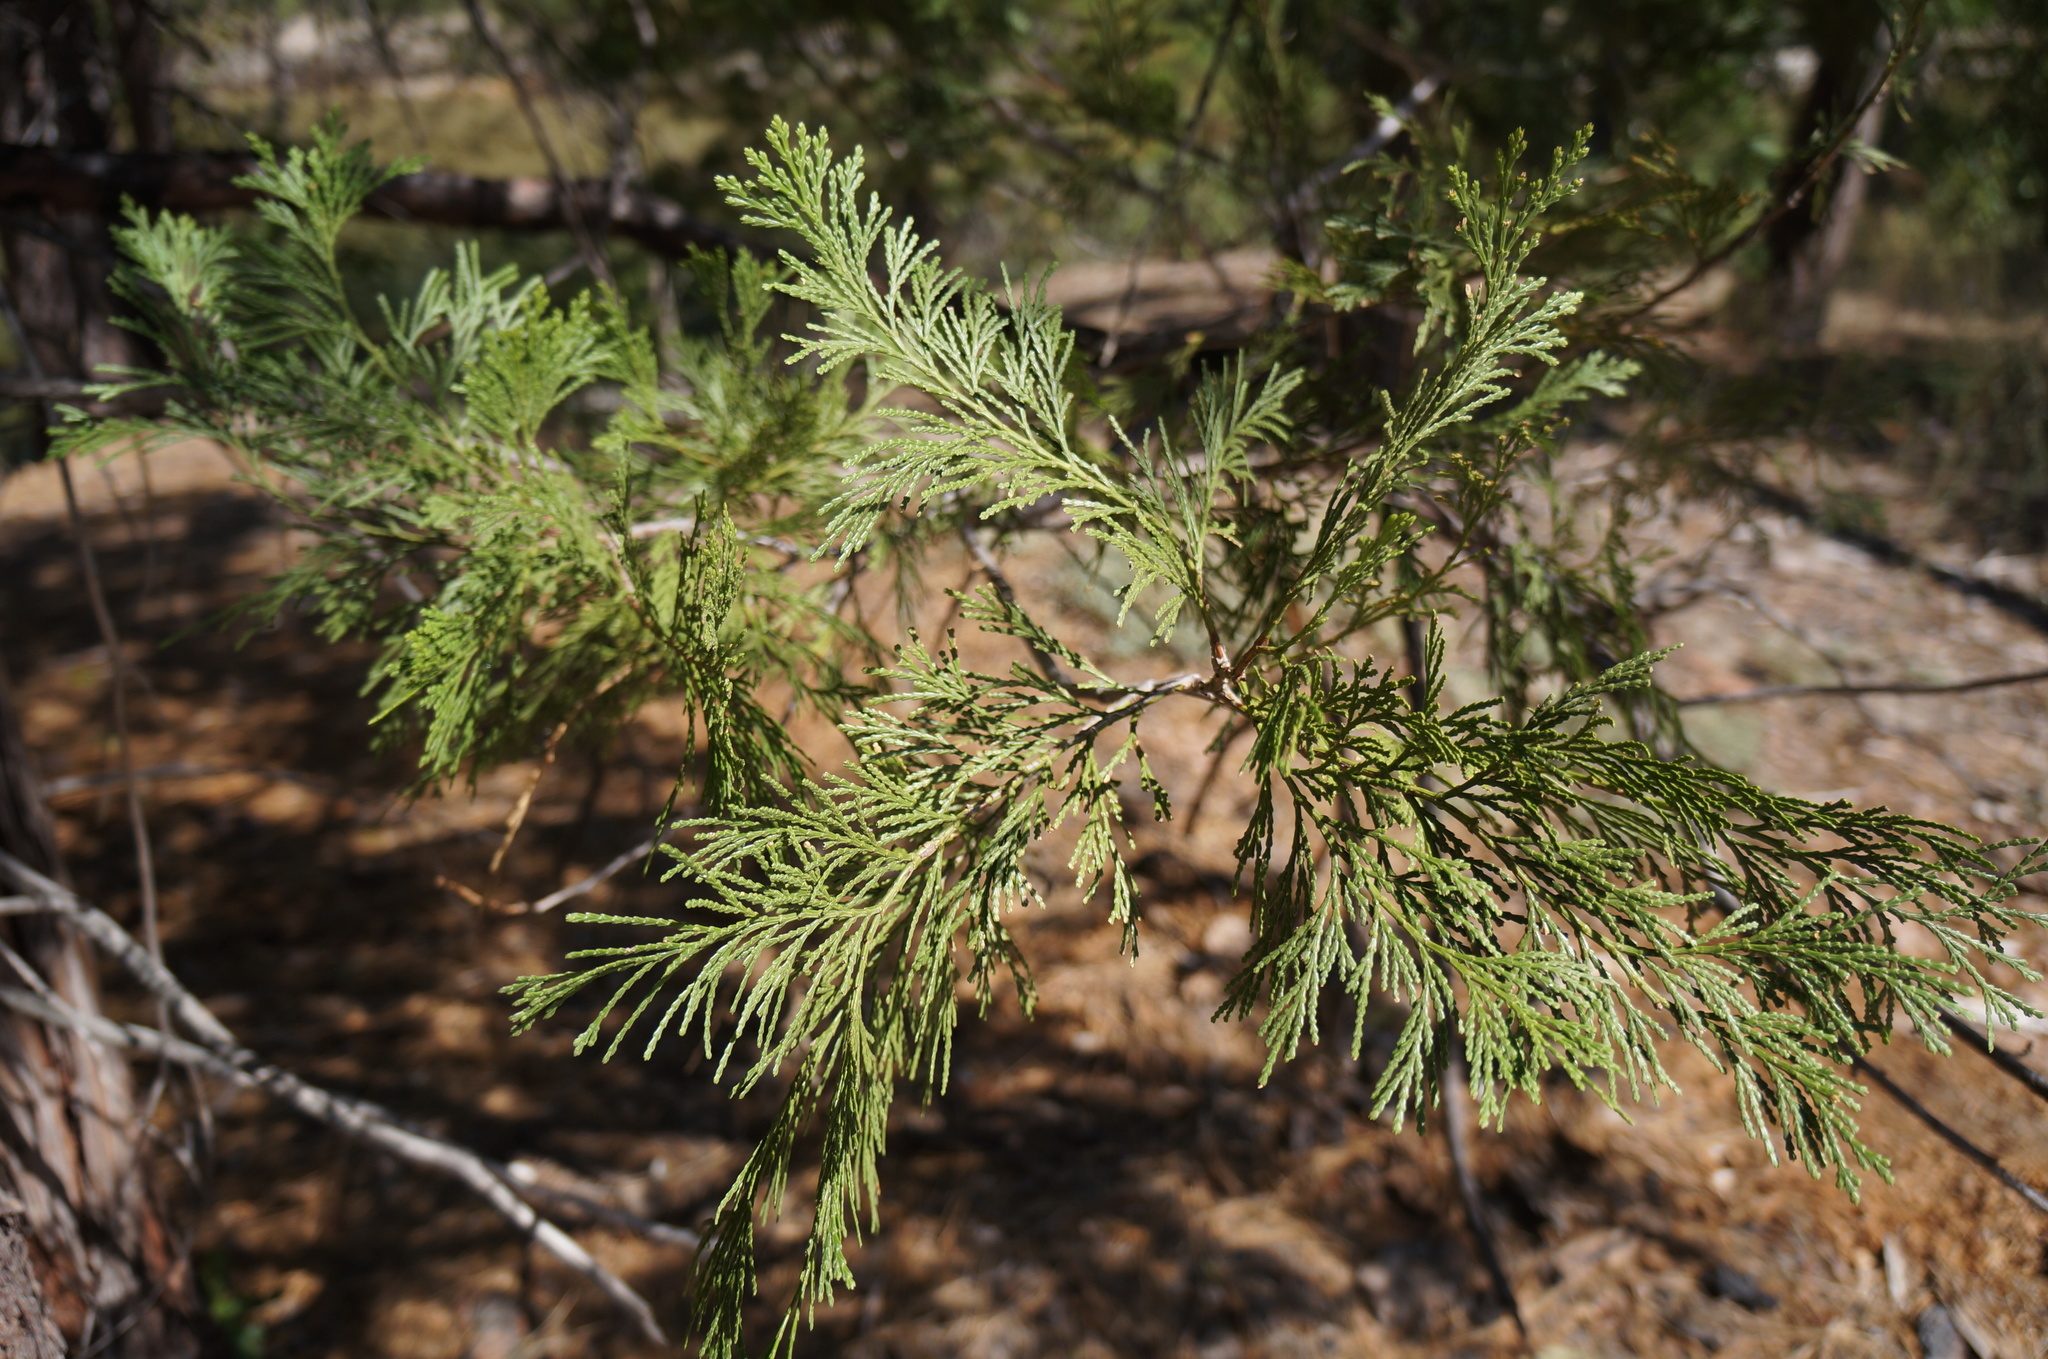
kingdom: Plantae
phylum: Tracheophyta
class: Pinopsida
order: Pinales
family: Cupressaceae
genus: Calocedrus
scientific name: Calocedrus decurrens
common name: Californian incense-cedar
